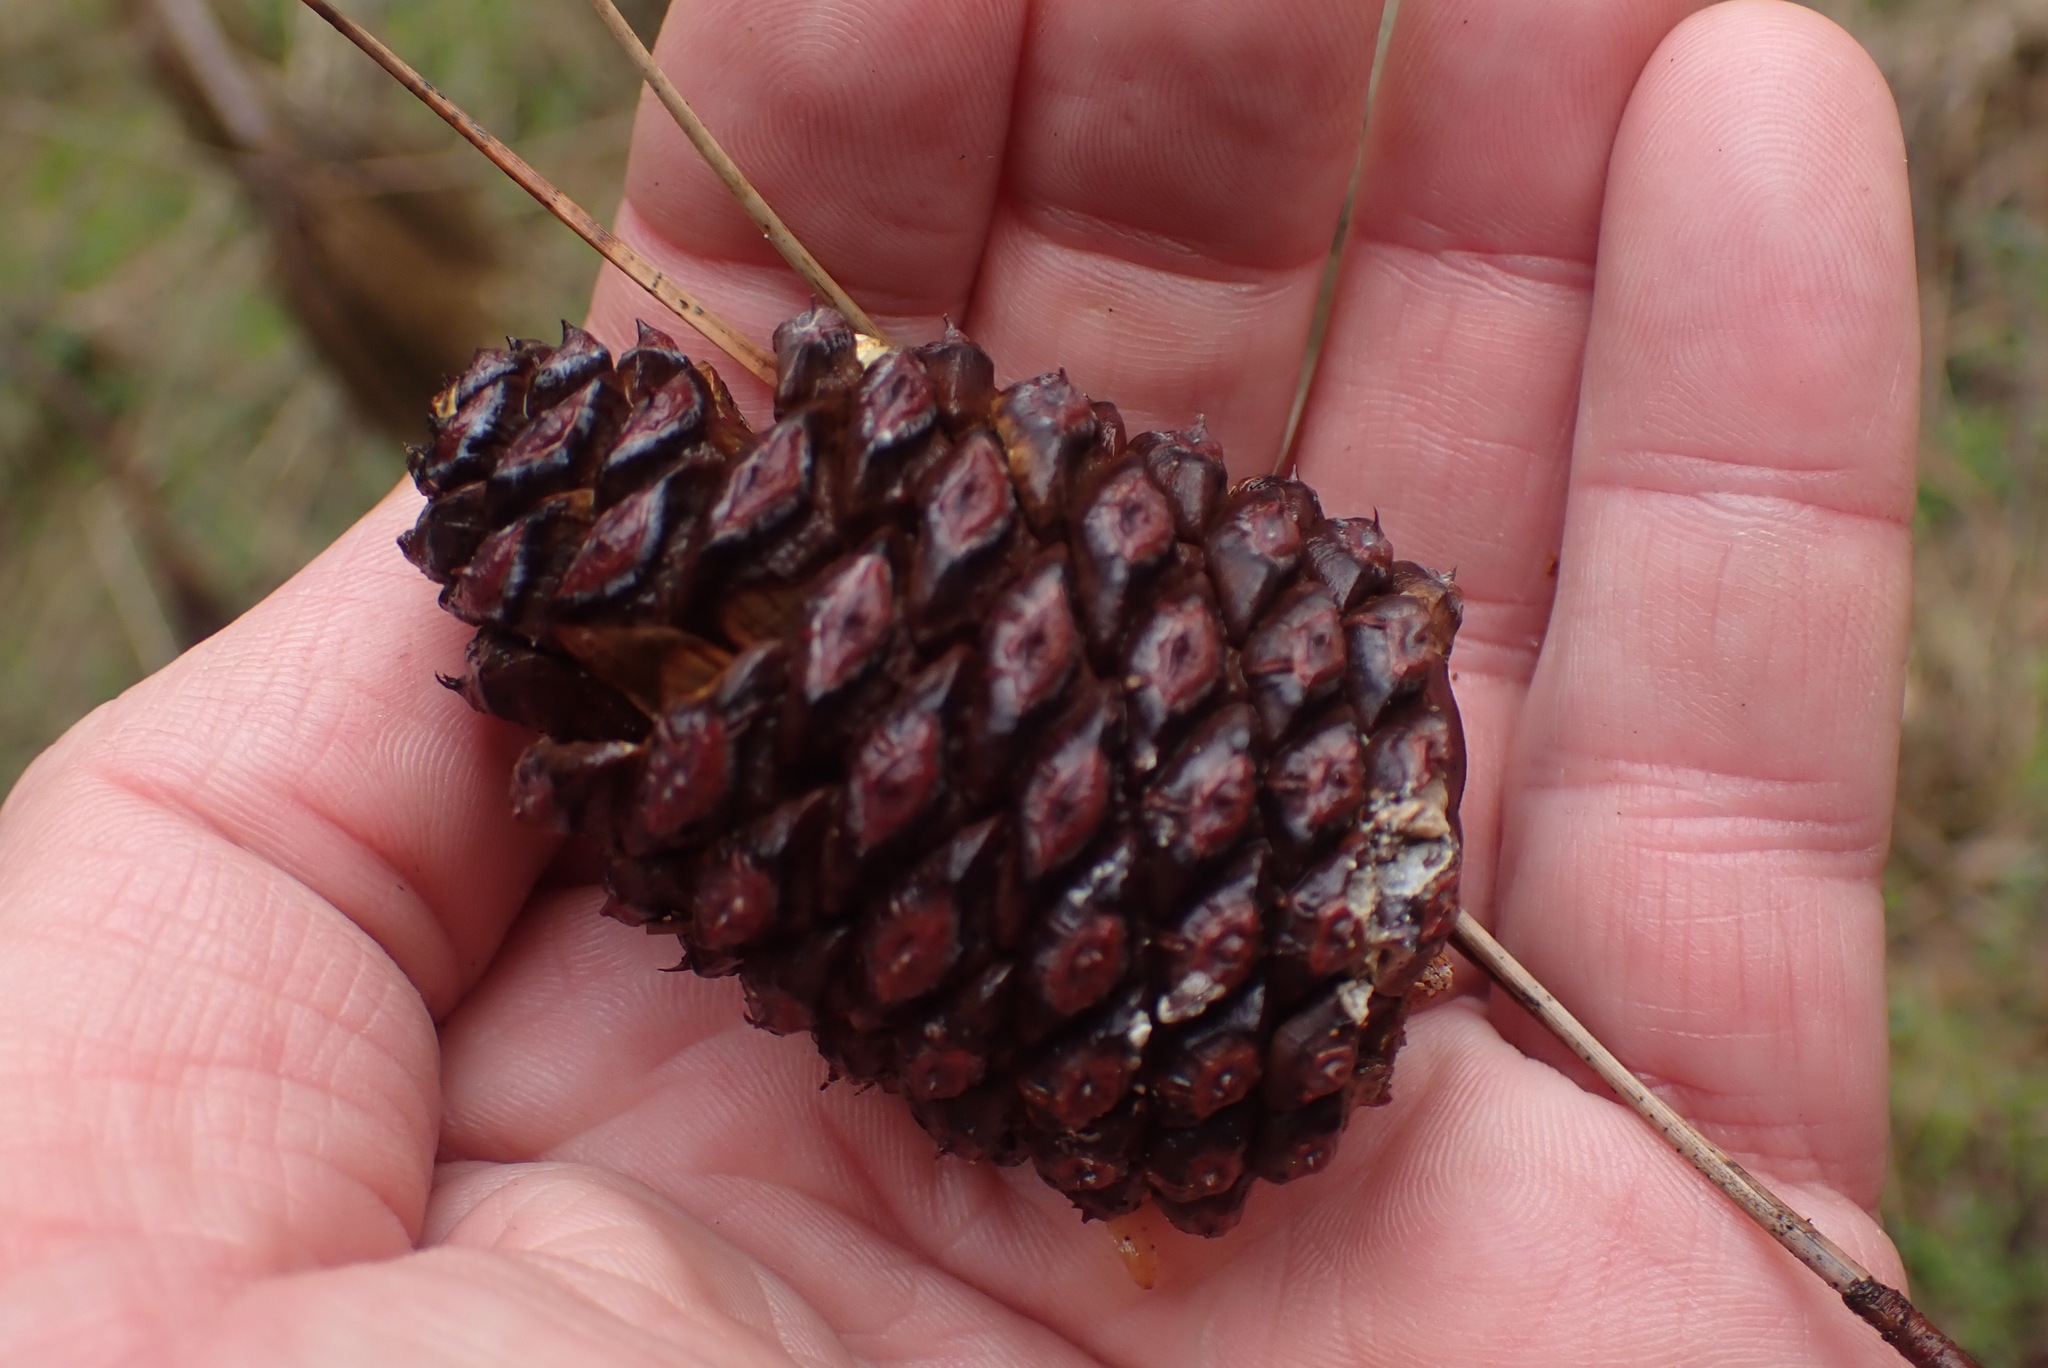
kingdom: Plantae
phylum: Tracheophyta
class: Pinopsida
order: Pinales
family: Pinaceae
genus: Pinus
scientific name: Pinus contorta
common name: Lodgepole pine
